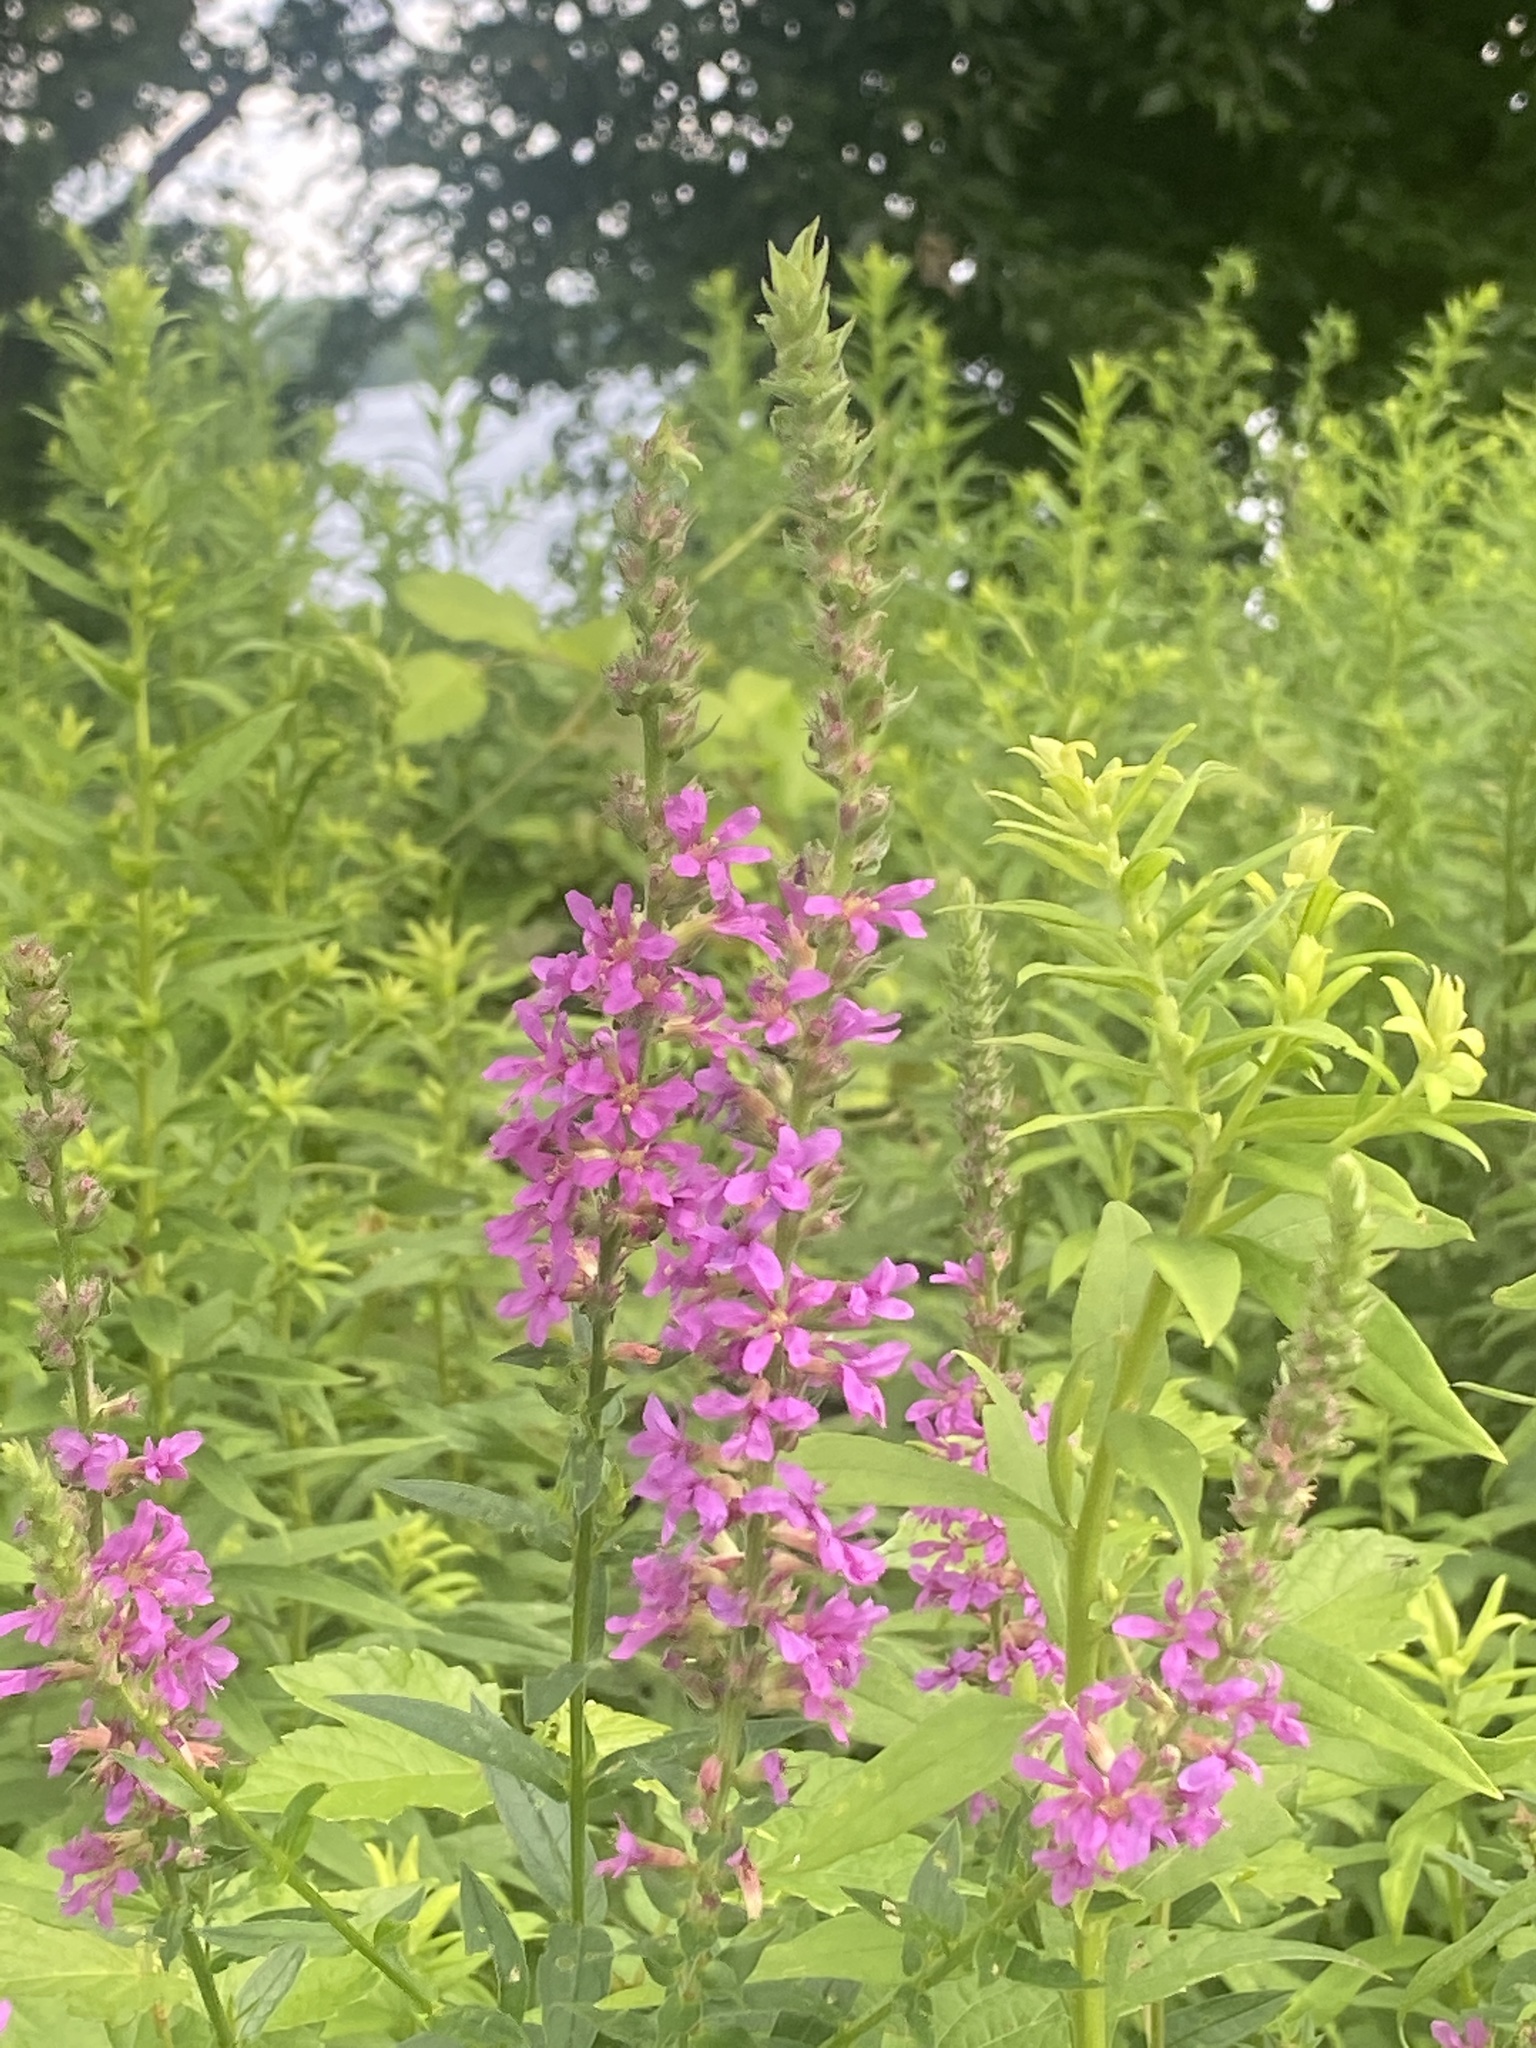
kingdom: Plantae
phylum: Tracheophyta
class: Magnoliopsida
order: Myrtales
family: Lythraceae
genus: Lythrum
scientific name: Lythrum salicaria
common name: Purple loosestrife
